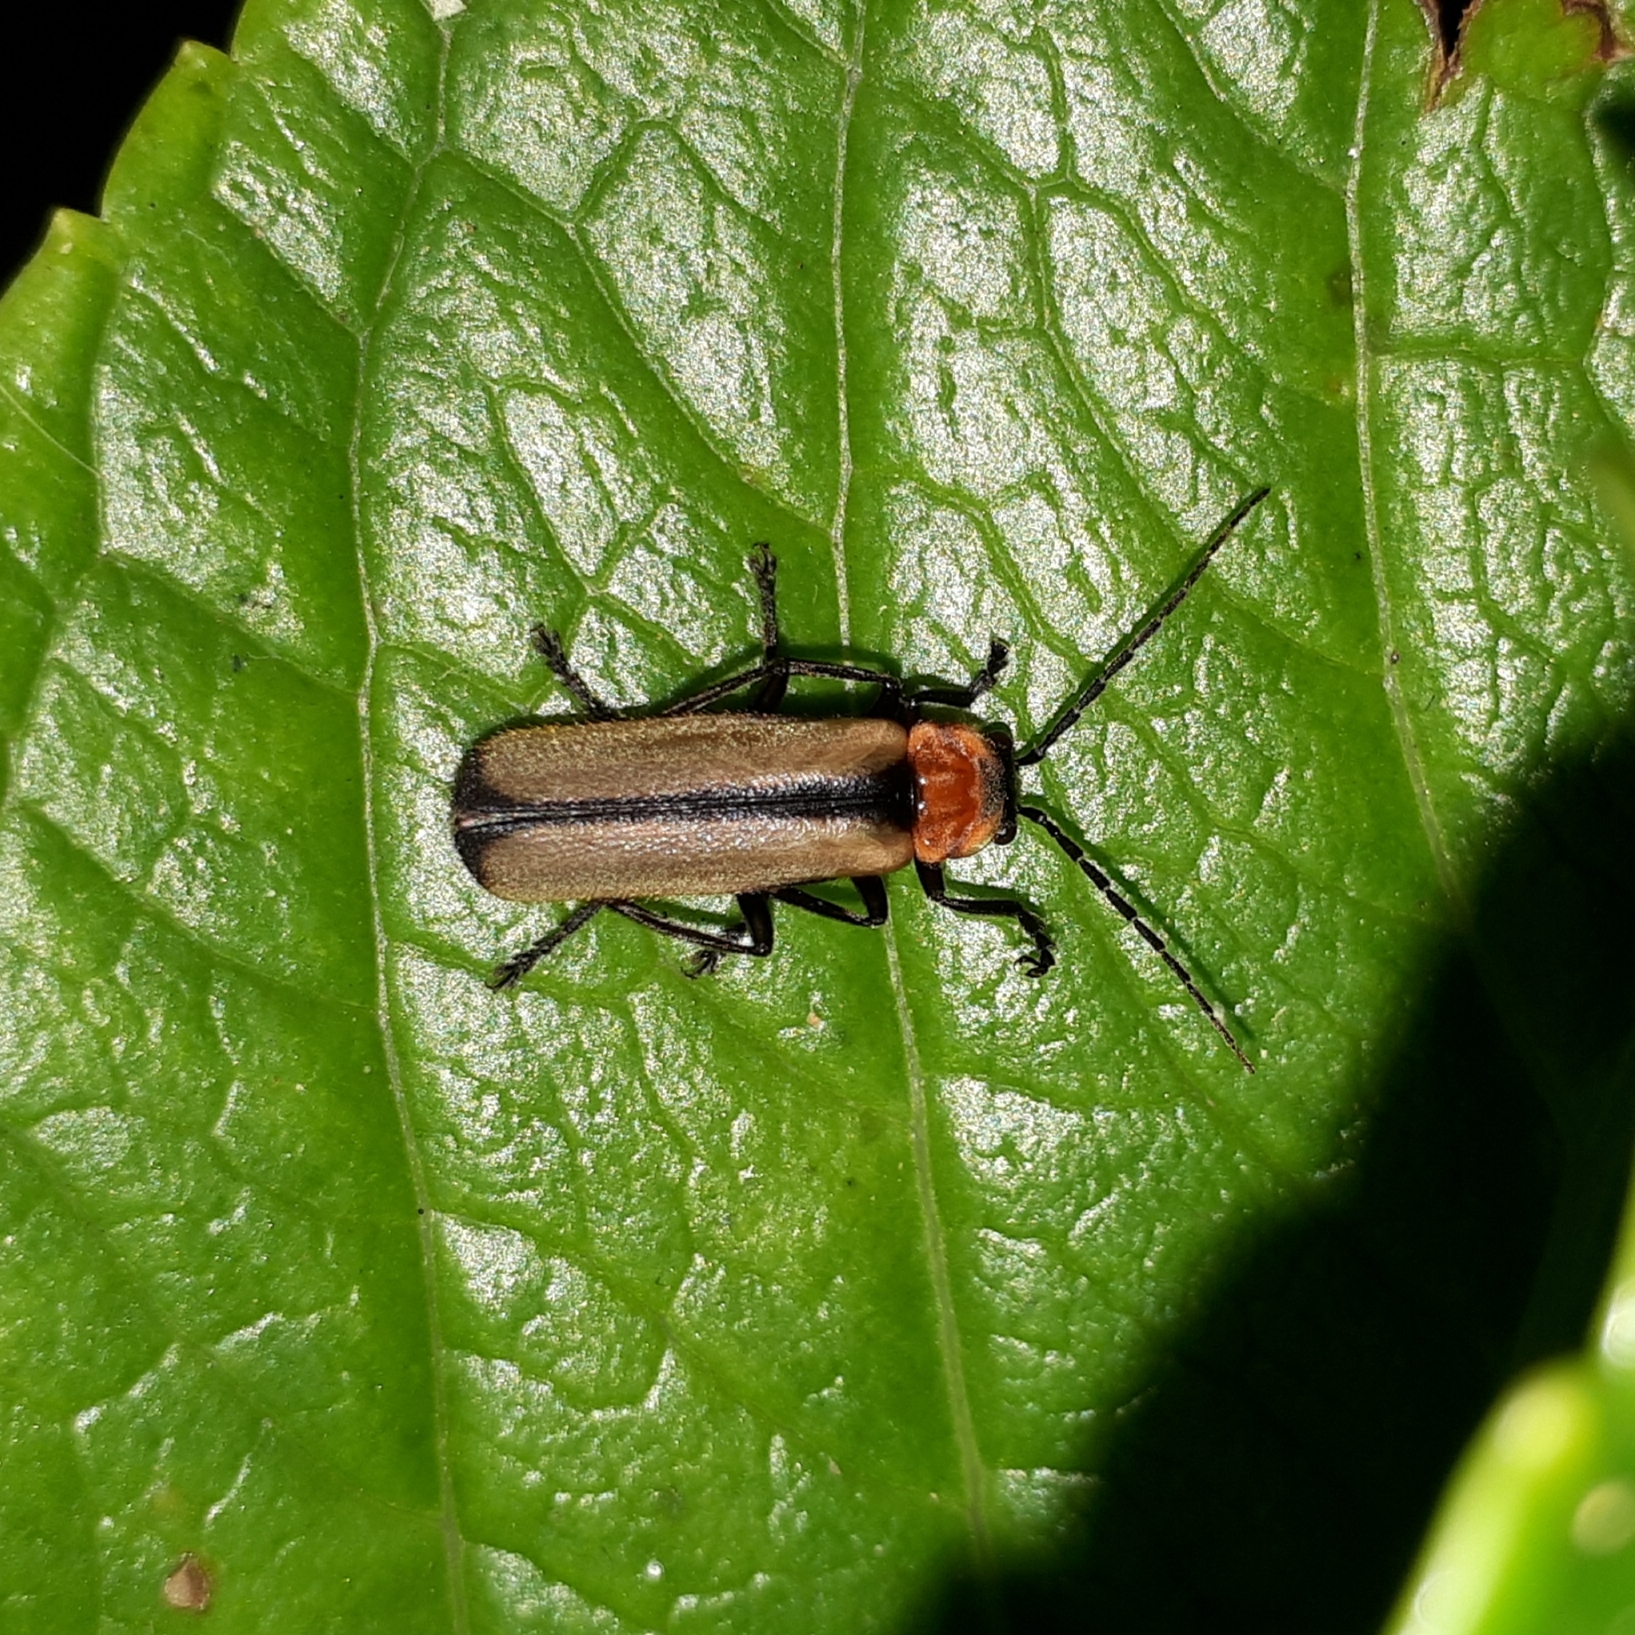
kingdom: Animalia
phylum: Arthropoda
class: Insecta
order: Coleoptera
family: Cantharidae
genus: Discodon
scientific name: Discodon
